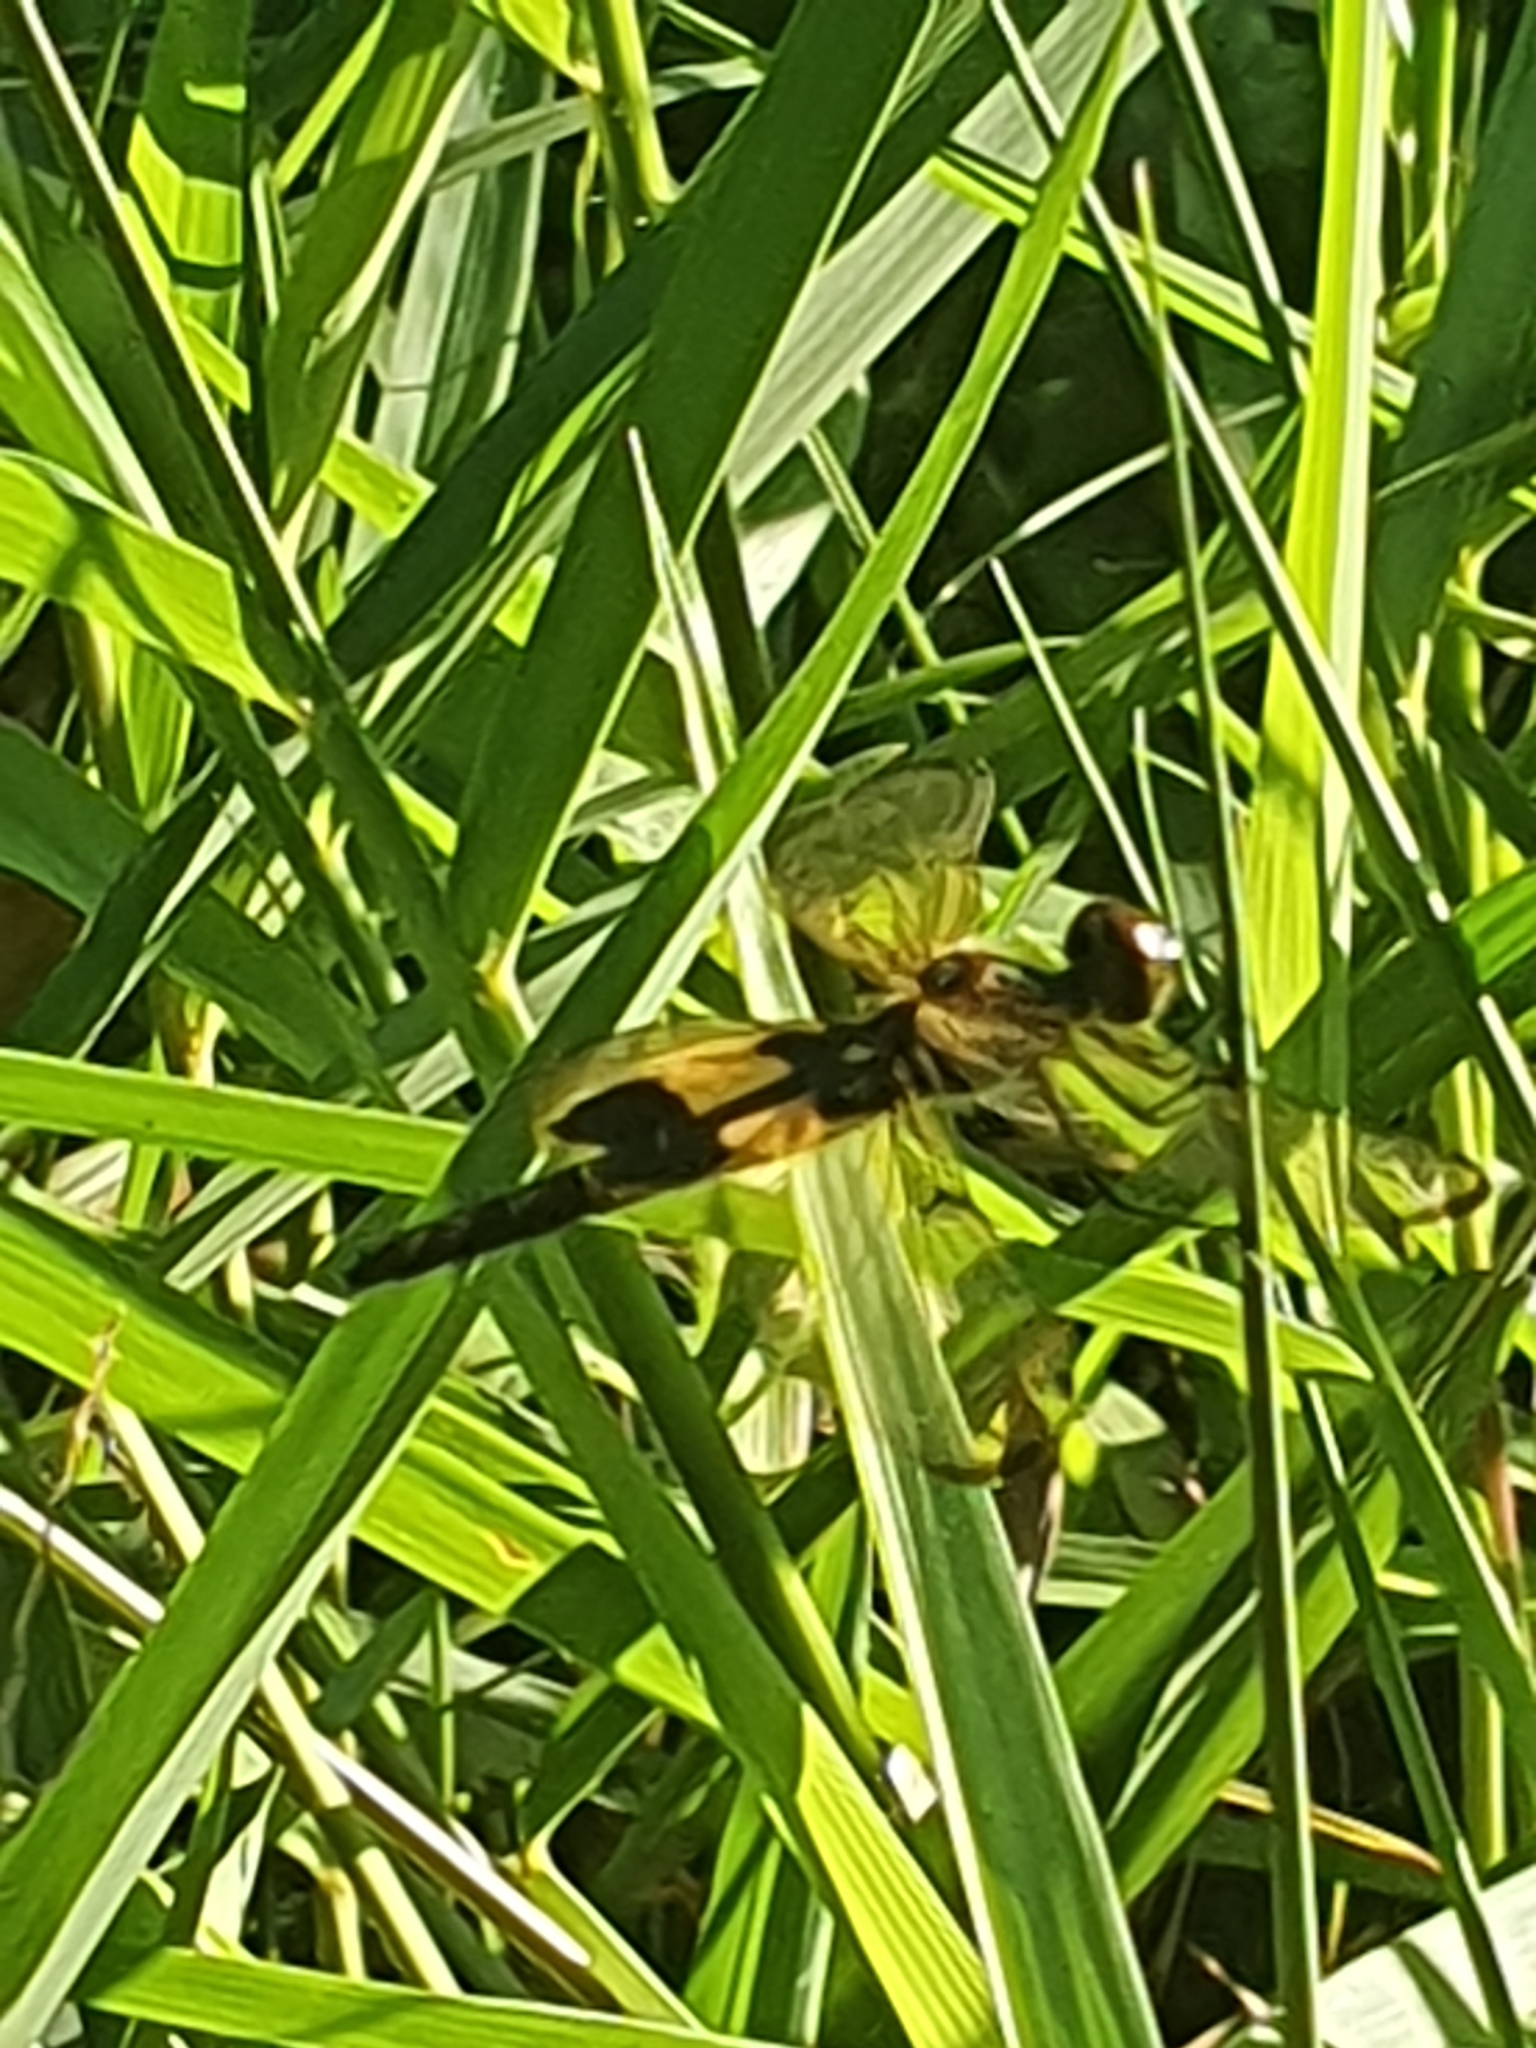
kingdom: Animalia
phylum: Arthropoda
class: Insecta
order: Odonata
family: Libellulidae
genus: Rhyothemis
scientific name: Rhyothemis phyllis
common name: Yellow-barred flutterer
